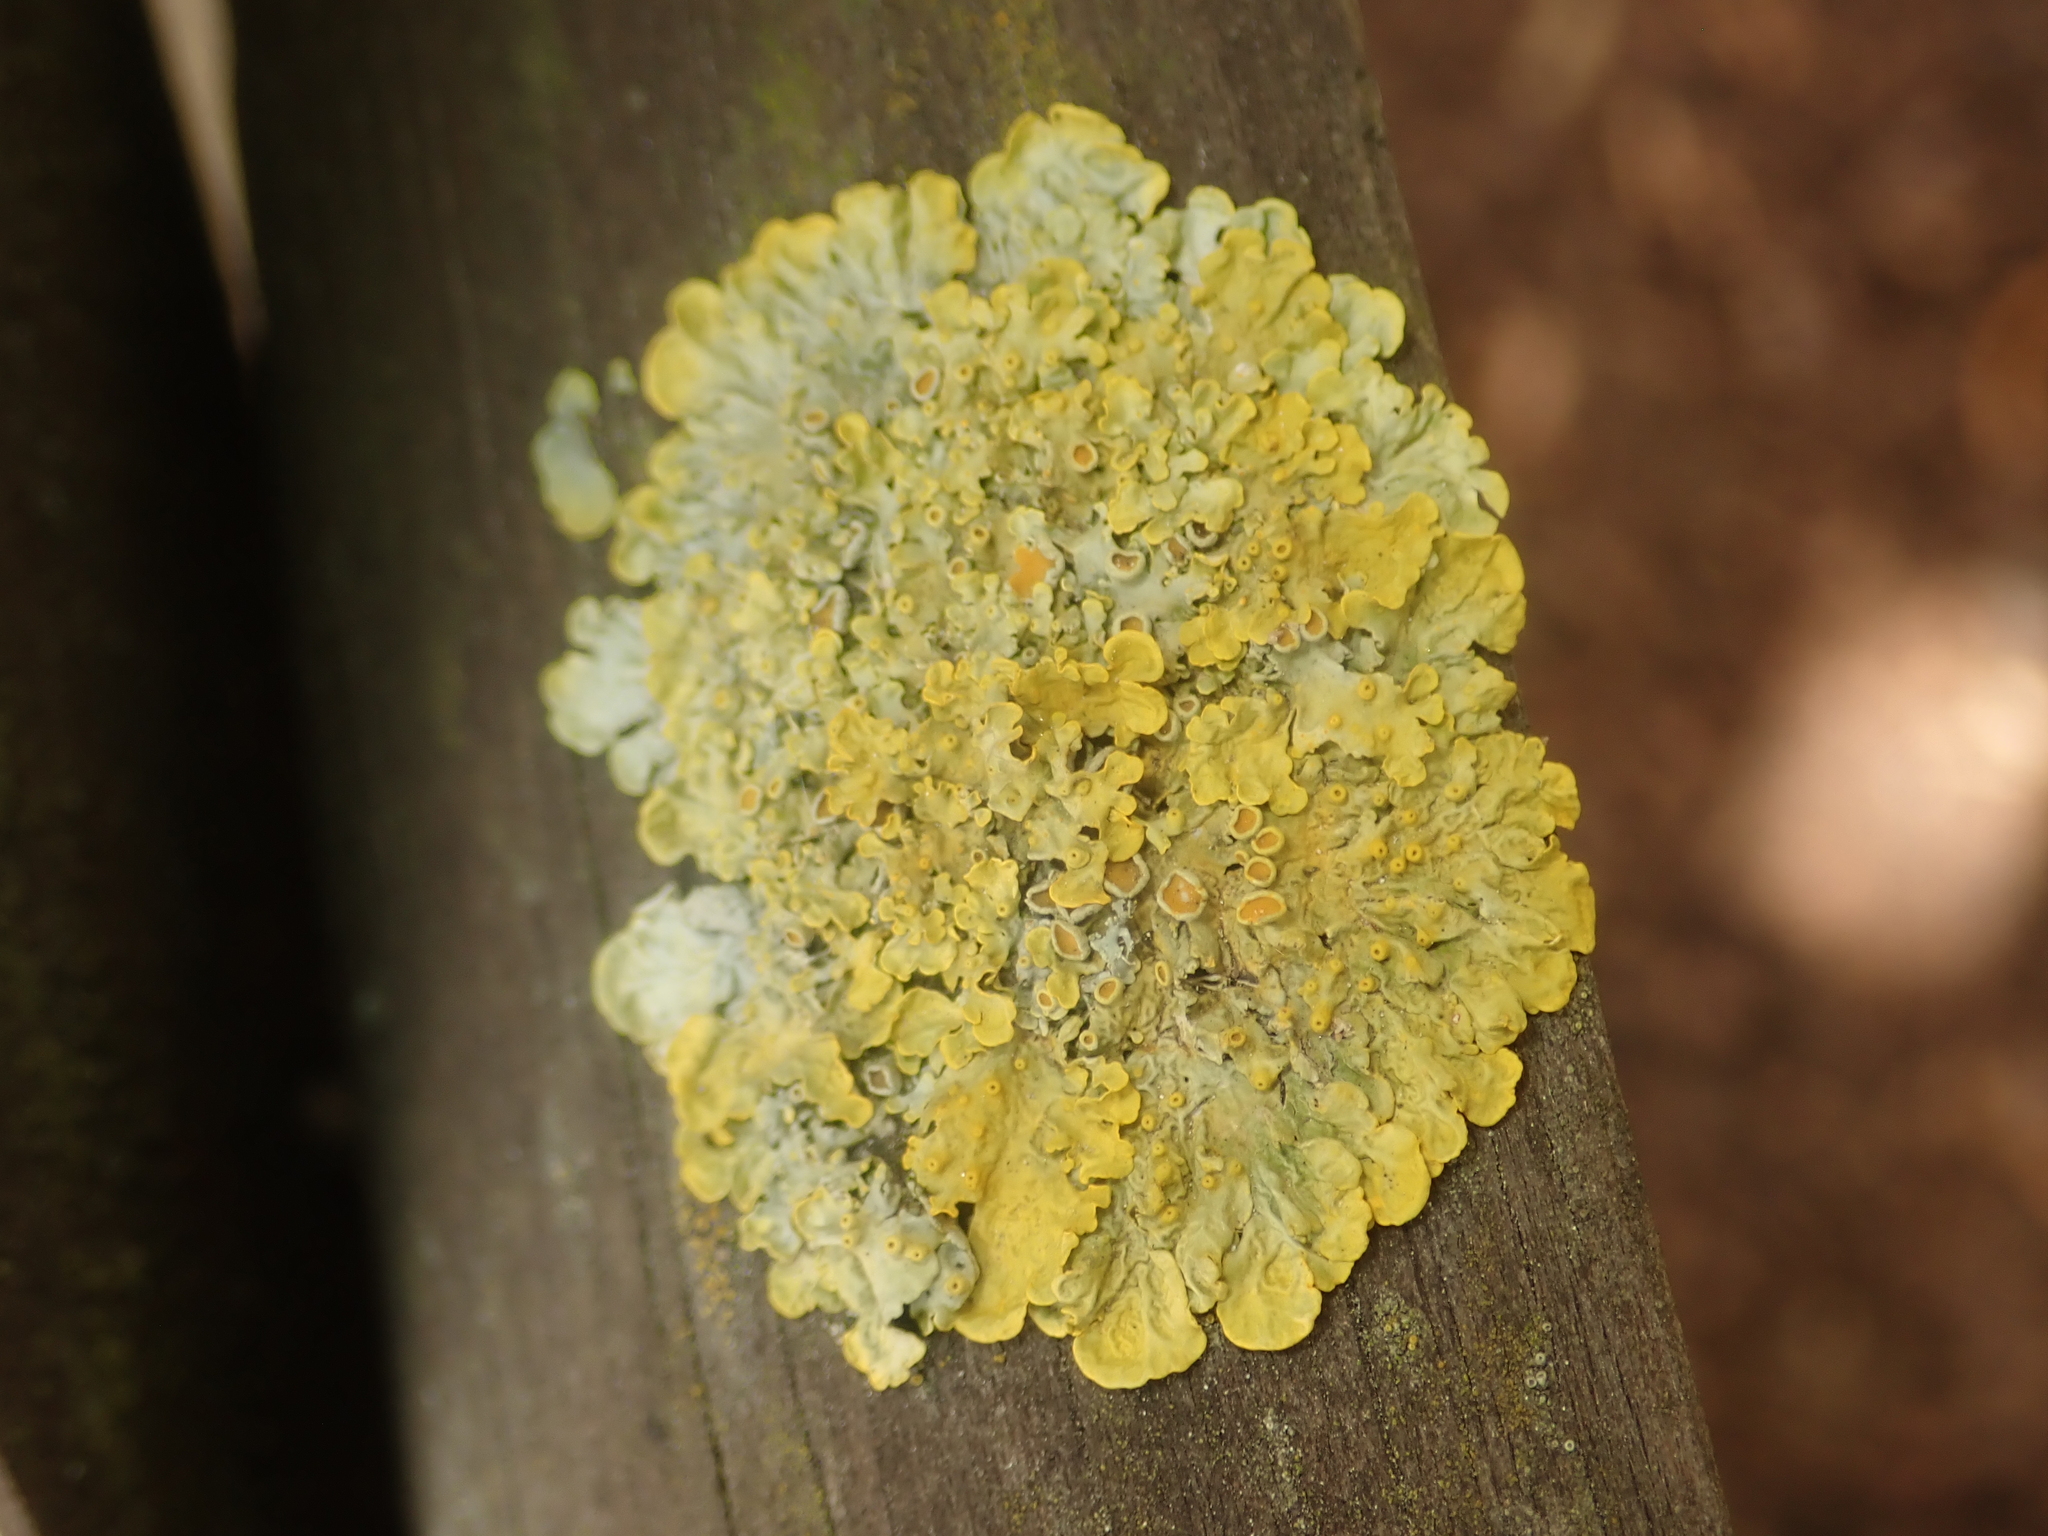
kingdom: Fungi
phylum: Ascomycota
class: Lecanoromycetes
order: Teloschistales
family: Teloschistaceae
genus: Xanthoria
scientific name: Xanthoria parietina
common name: Common orange lichen
